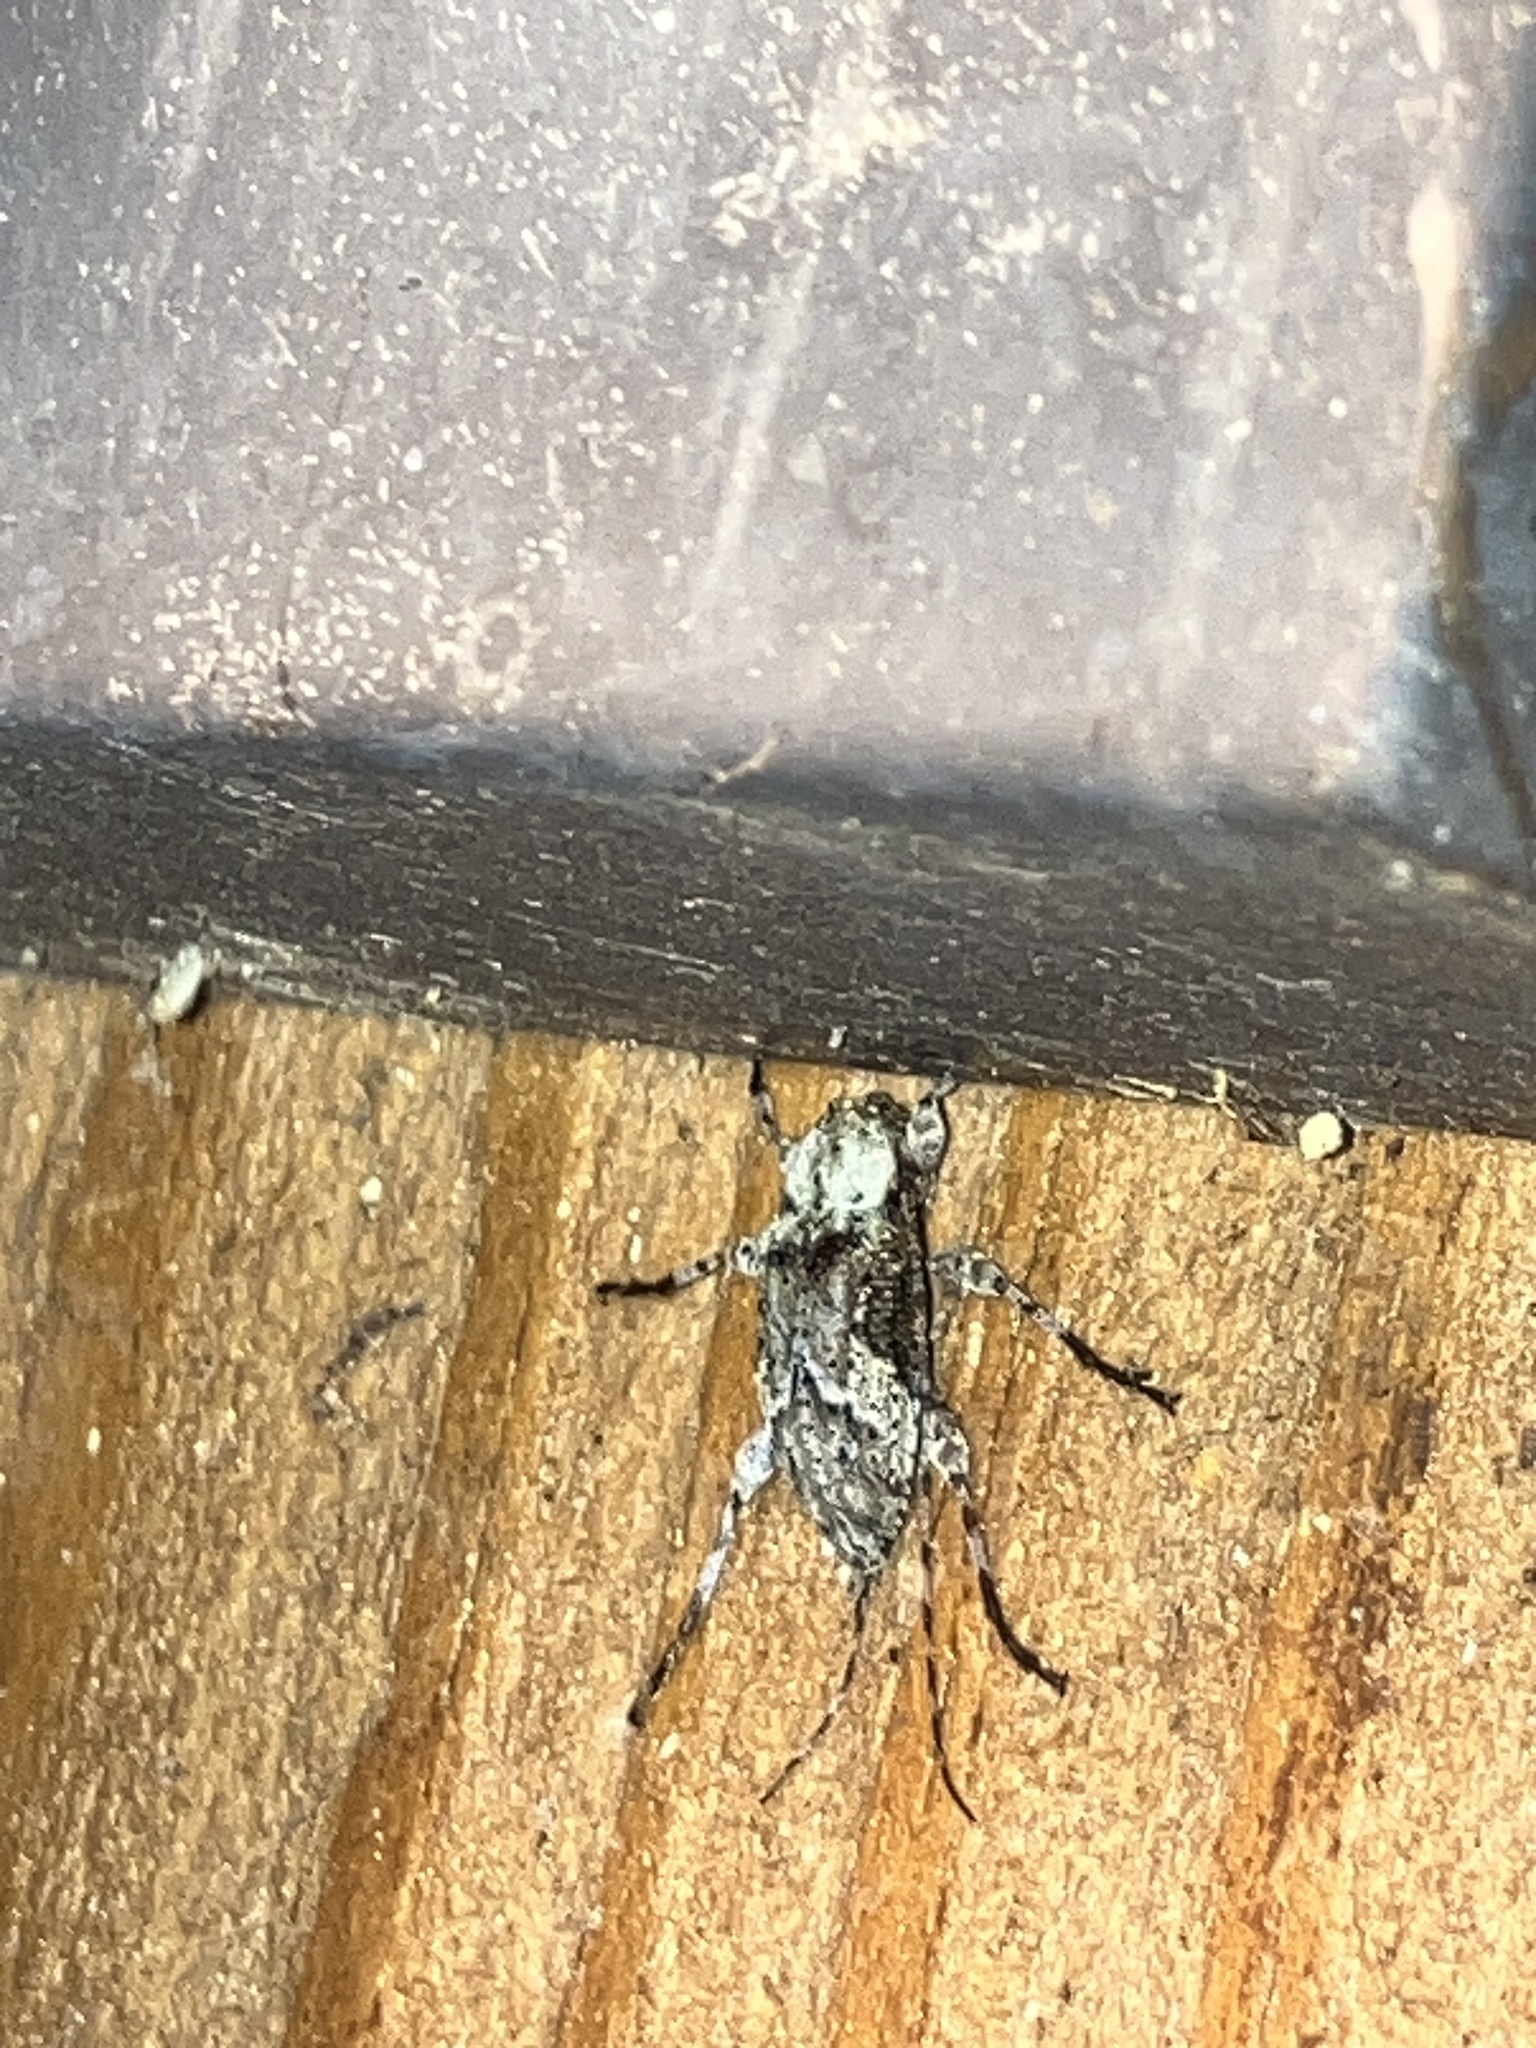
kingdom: Animalia
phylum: Arthropoda
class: Insecta
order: Coleoptera
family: Cerambycidae
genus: Leptostylopsis
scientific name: Leptostylopsis planidorsus
